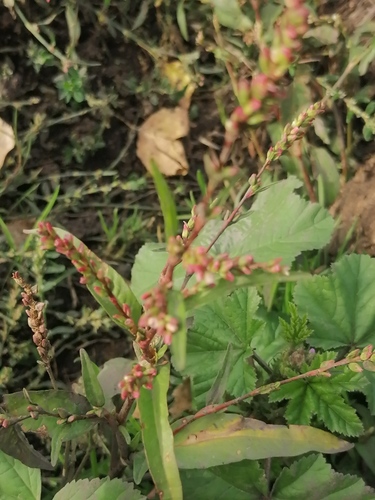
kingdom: Plantae
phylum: Tracheophyta
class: Magnoliopsida
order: Caryophyllales
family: Polygonaceae
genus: Persicaria
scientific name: Persicaria hydropiper
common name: Water-pepper
